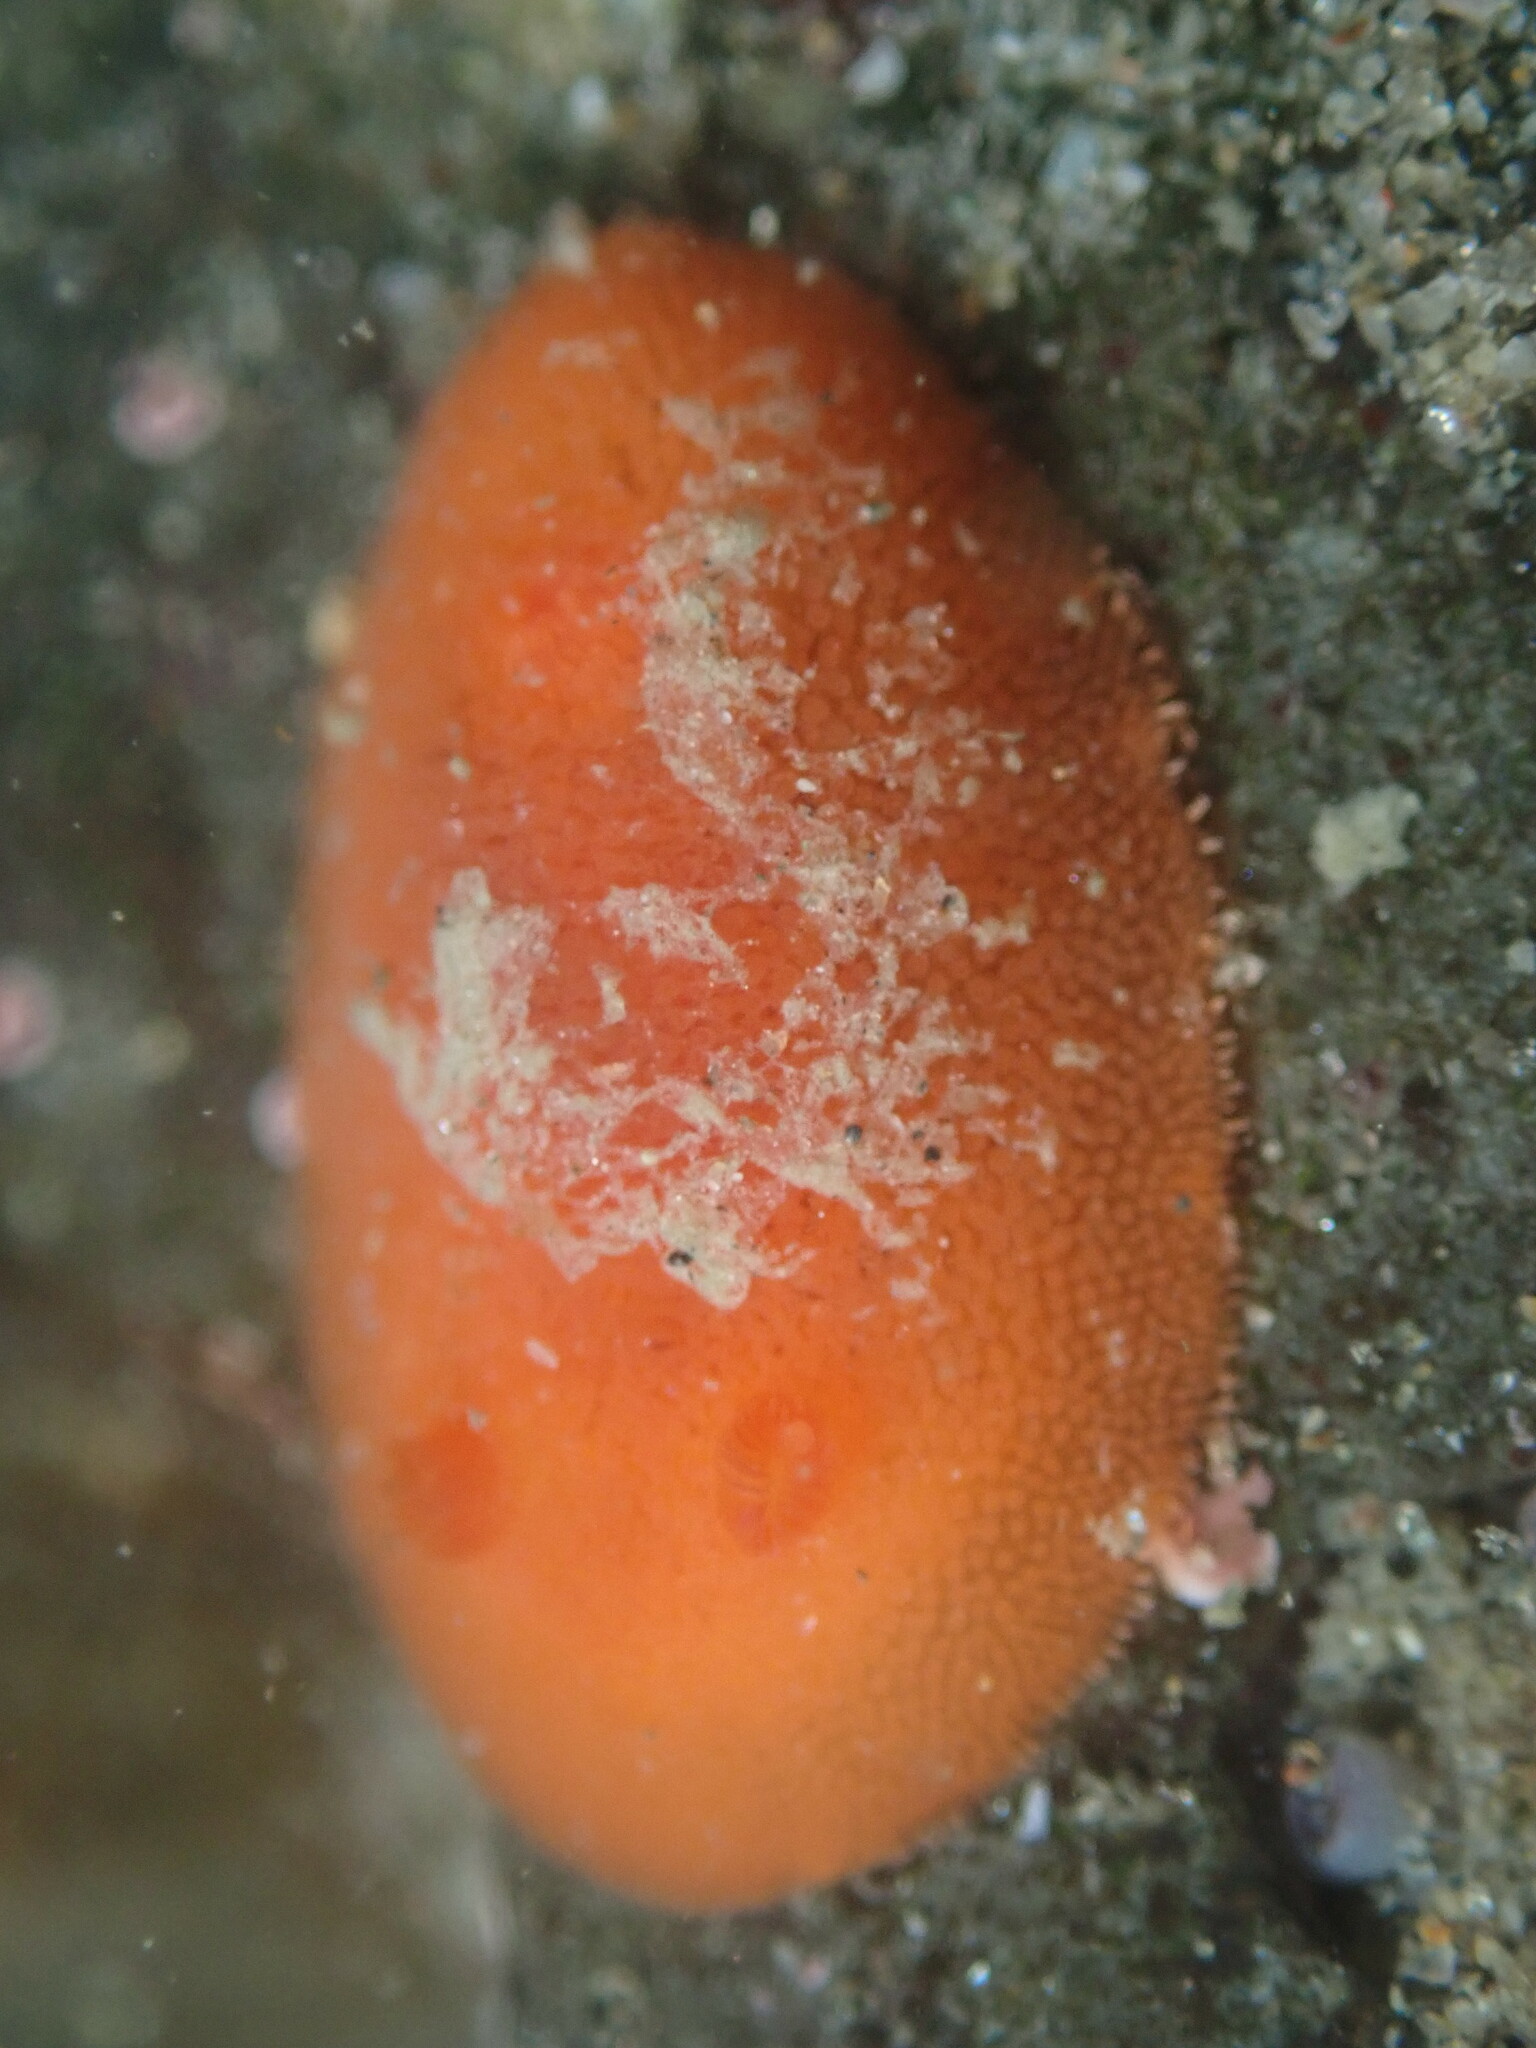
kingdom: Animalia
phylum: Mollusca
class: Gastropoda
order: Nudibranchia
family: Discodorididae
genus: Rostanga
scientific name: Rostanga pulchra
